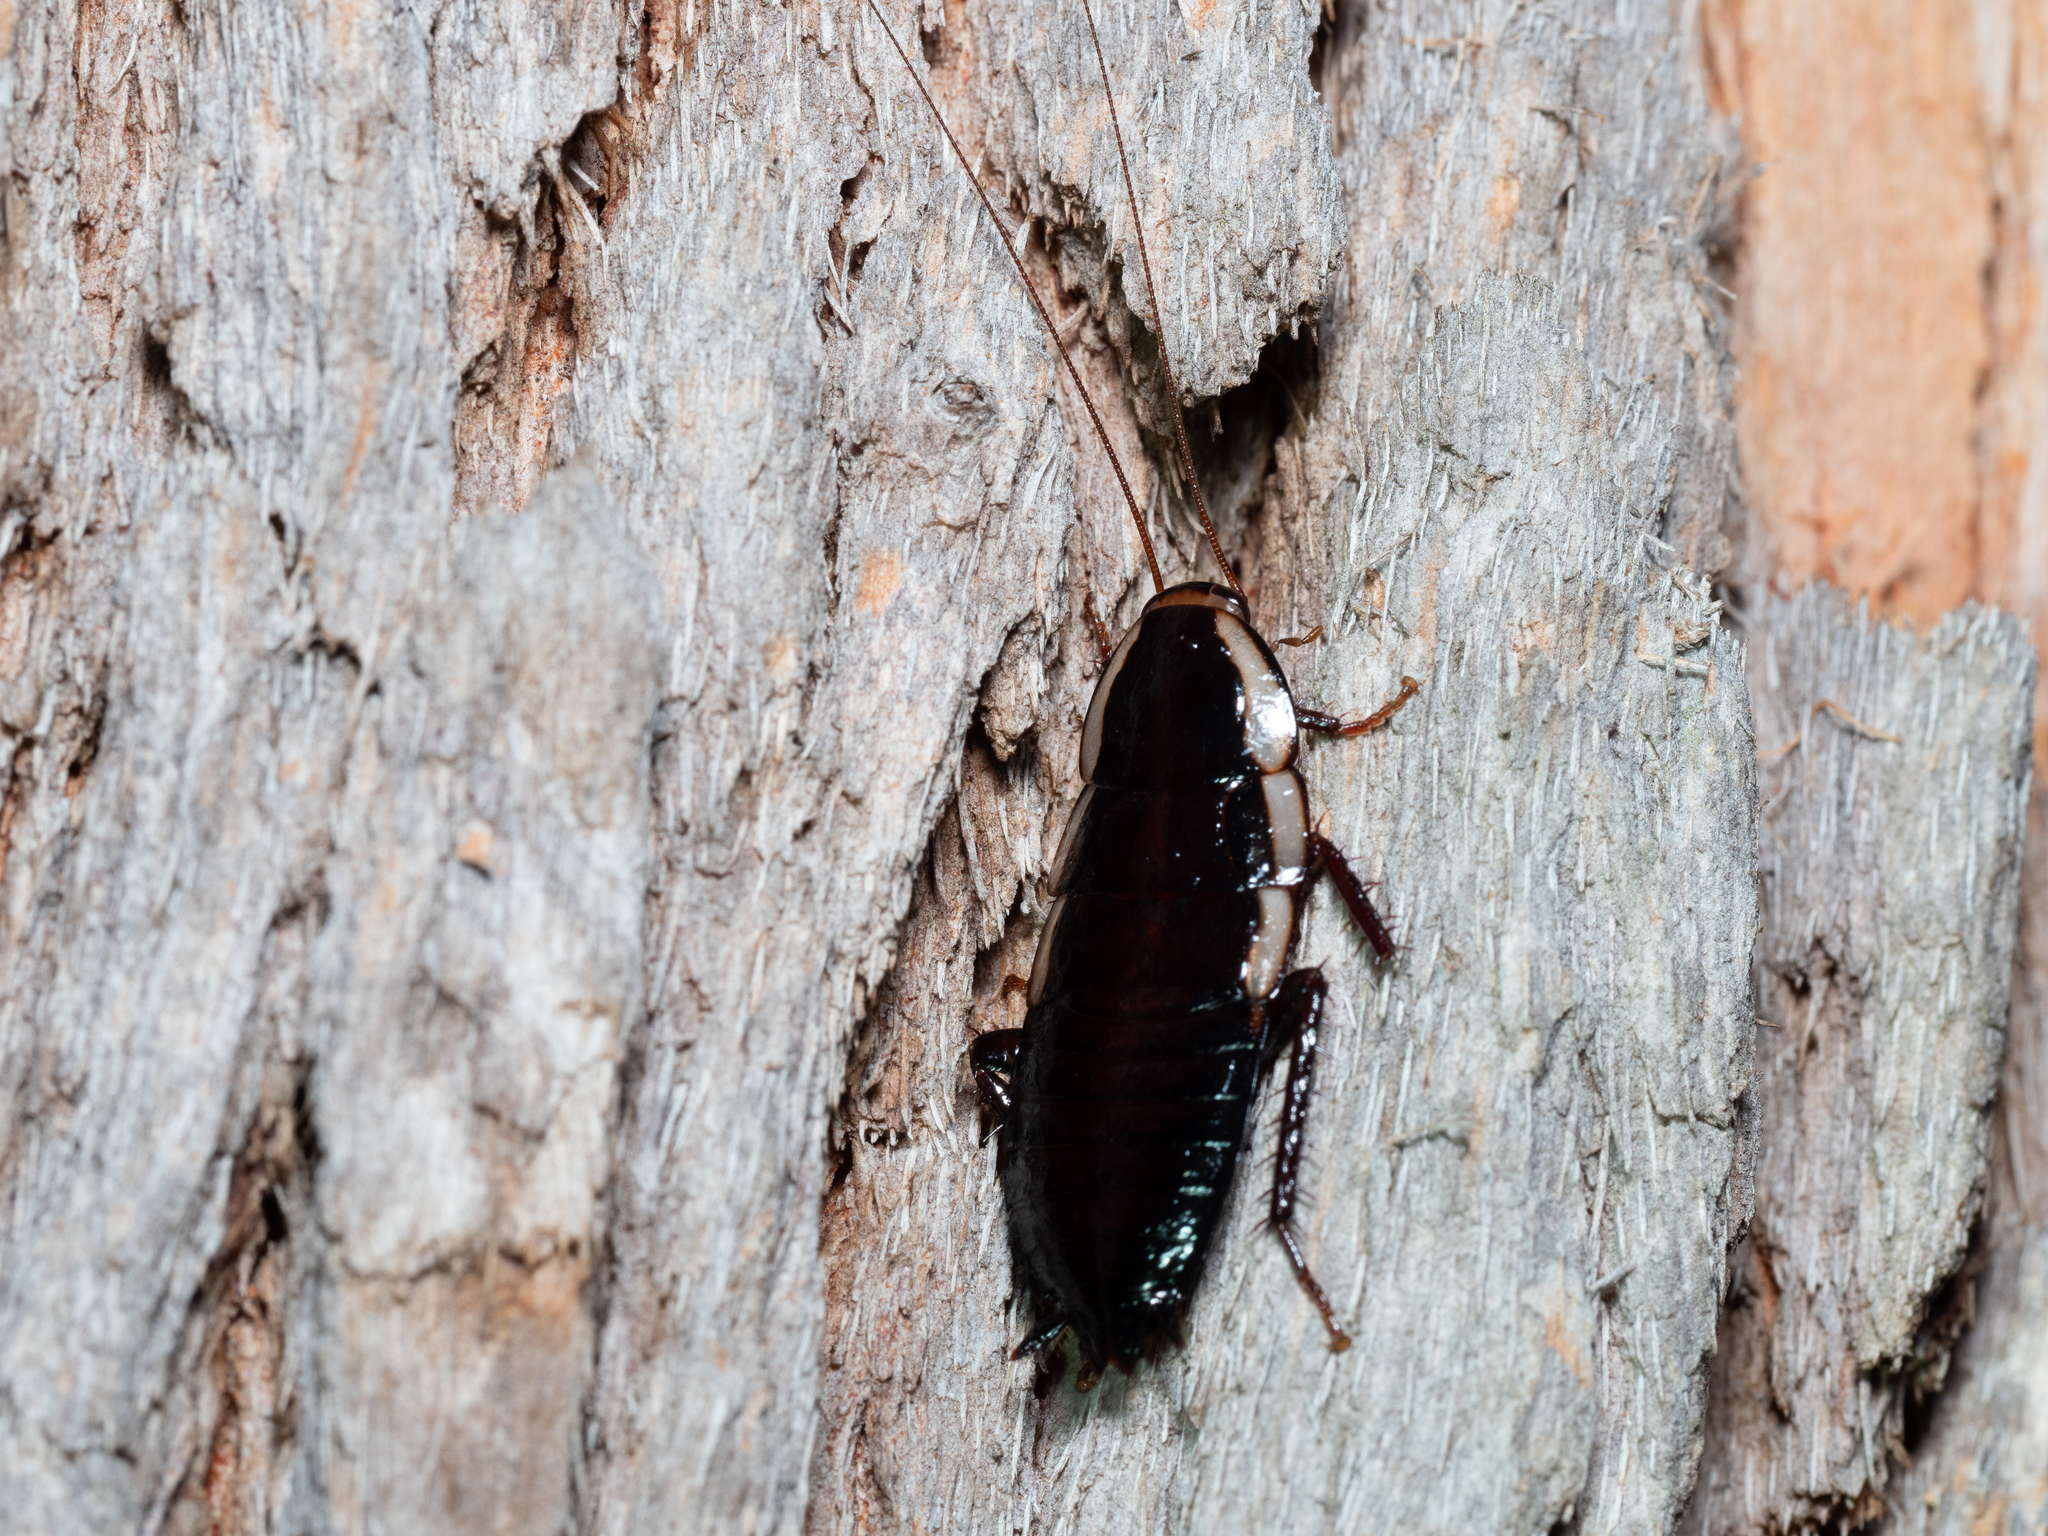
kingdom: Animalia
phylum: Arthropoda
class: Insecta
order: Blattodea
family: Blattidae
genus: Drymaplaneta
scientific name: Drymaplaneta
